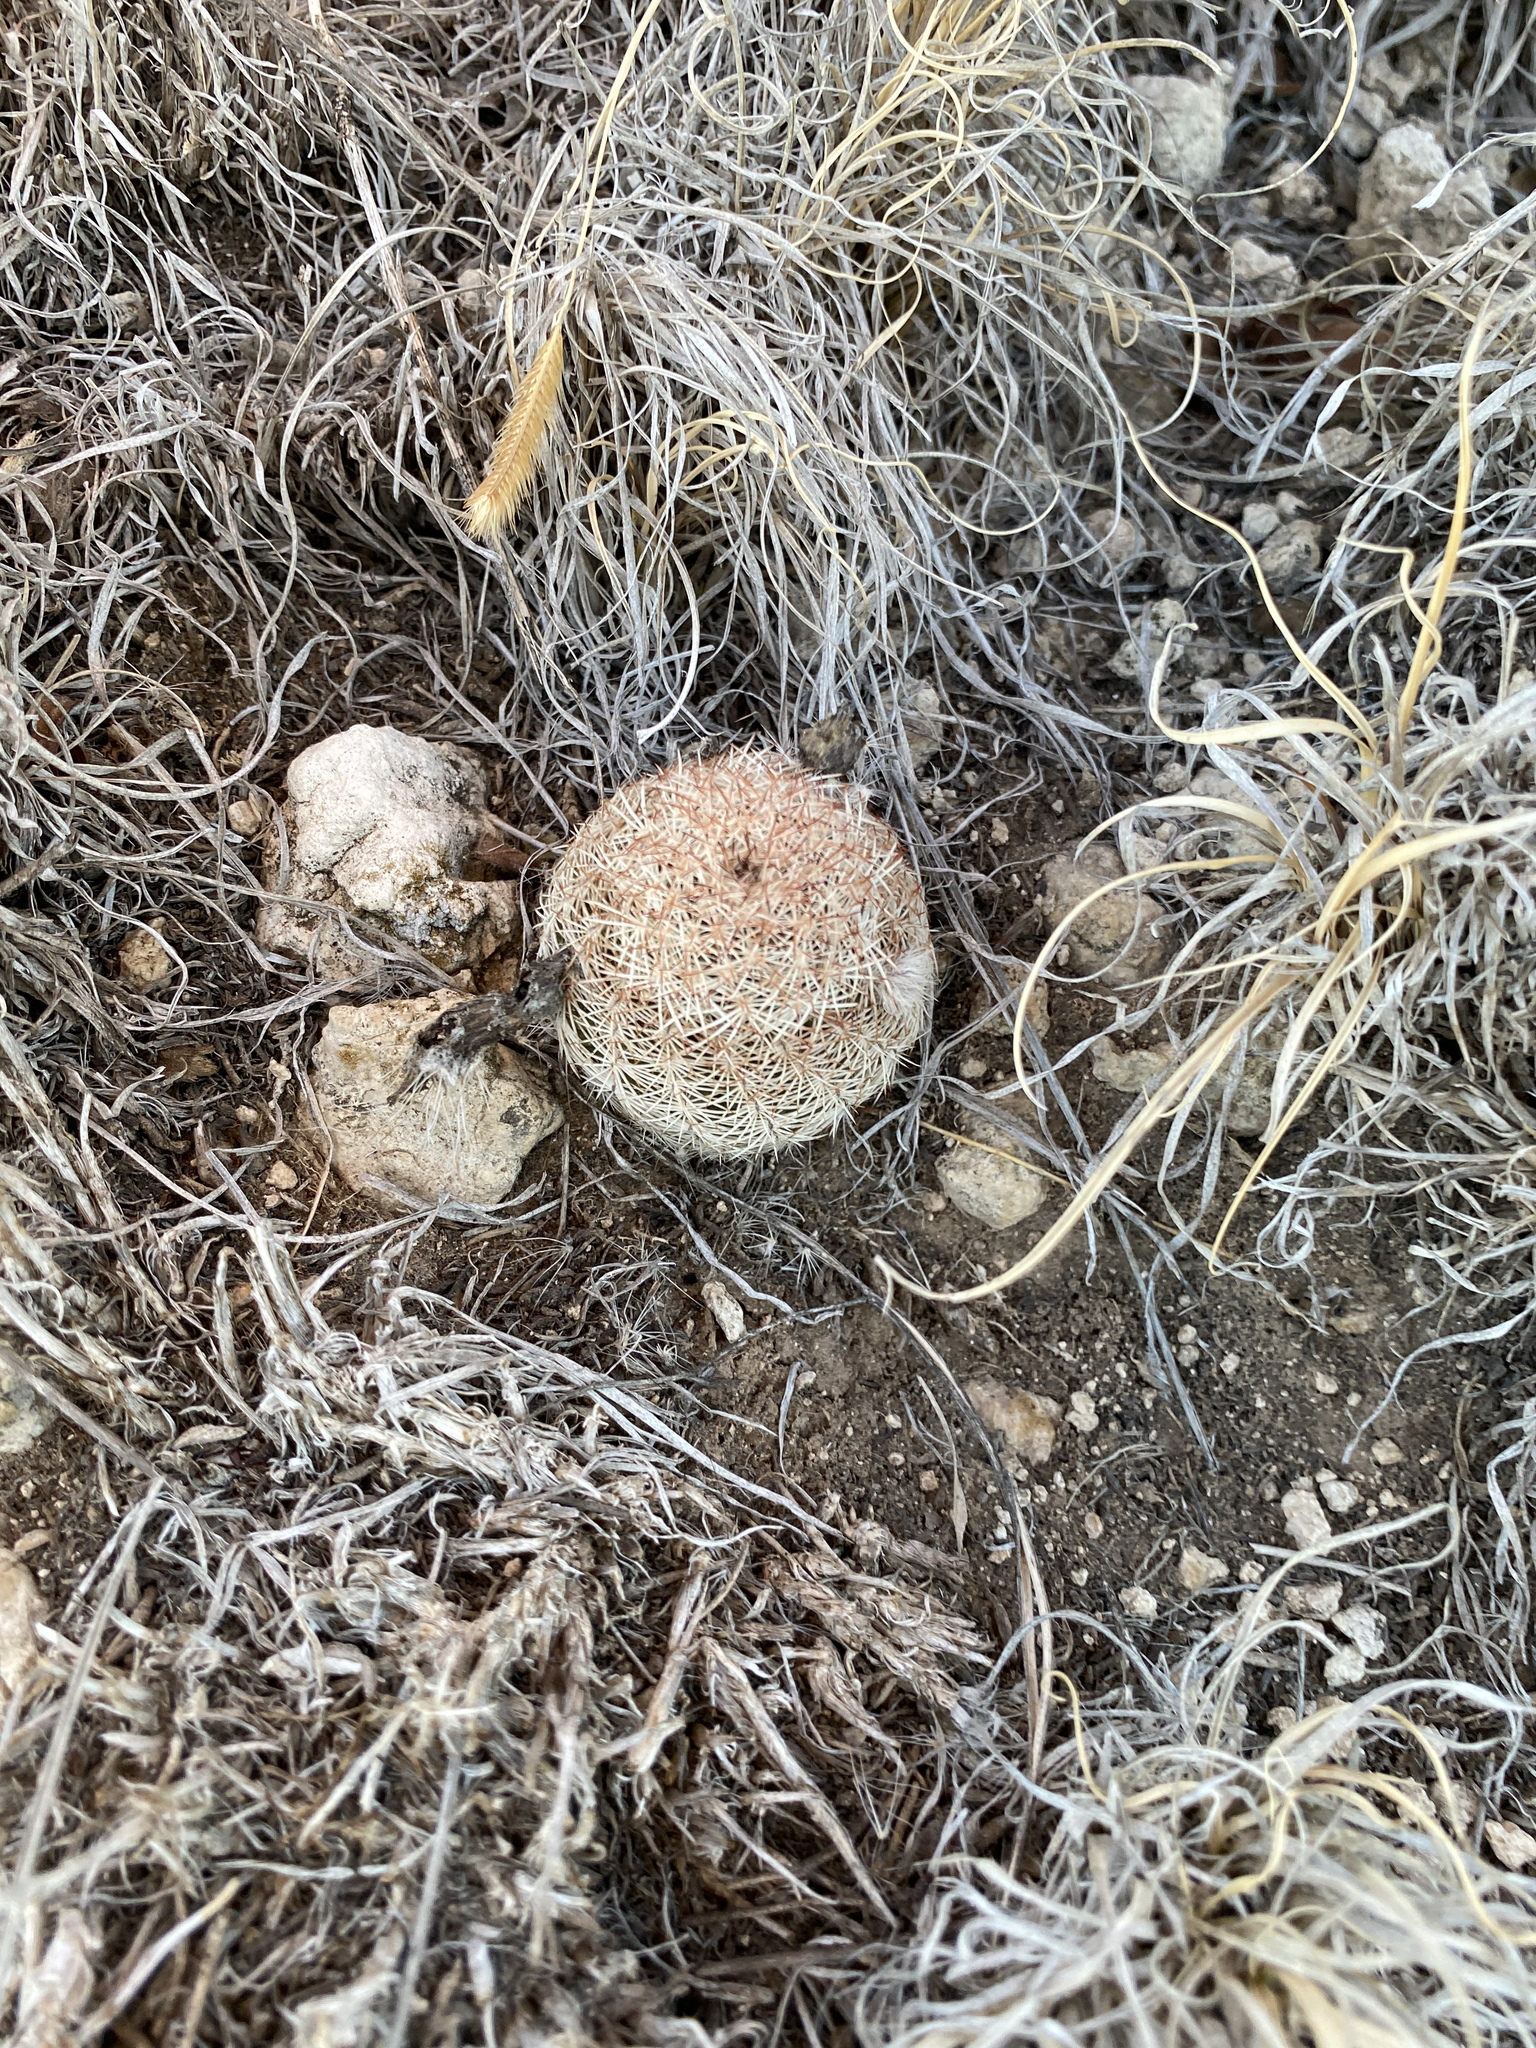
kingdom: Plantae
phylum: Tracheophyta
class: Magnoliopsida
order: Caryophyllales
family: Cactaceae
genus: Echinocereus
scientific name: Echinocereus reichenbachii
